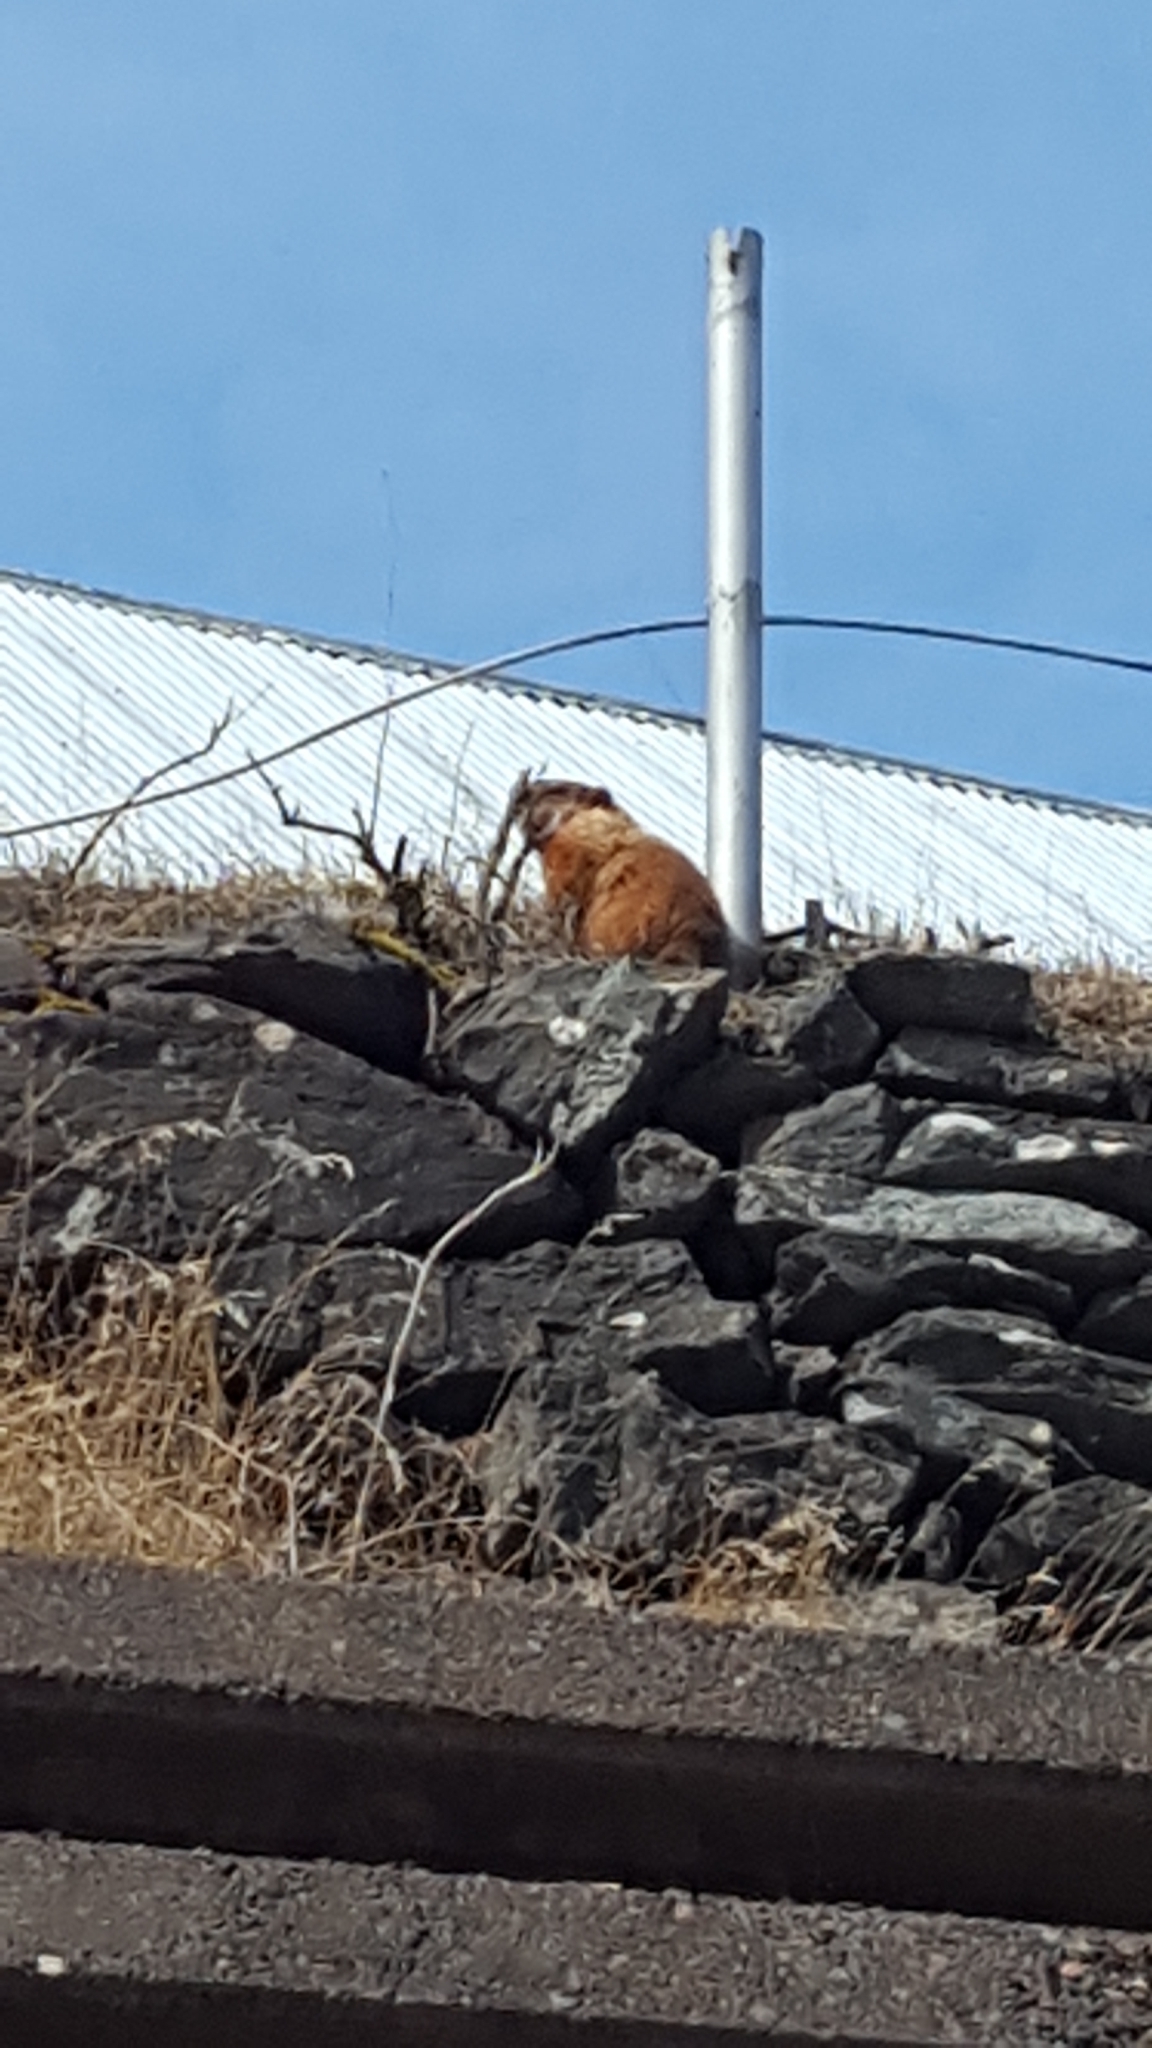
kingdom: Animalia
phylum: Chordata
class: Mammalia
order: Rodentia
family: Sciuridae
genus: Marmota
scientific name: Marmota monax
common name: Groundhog
